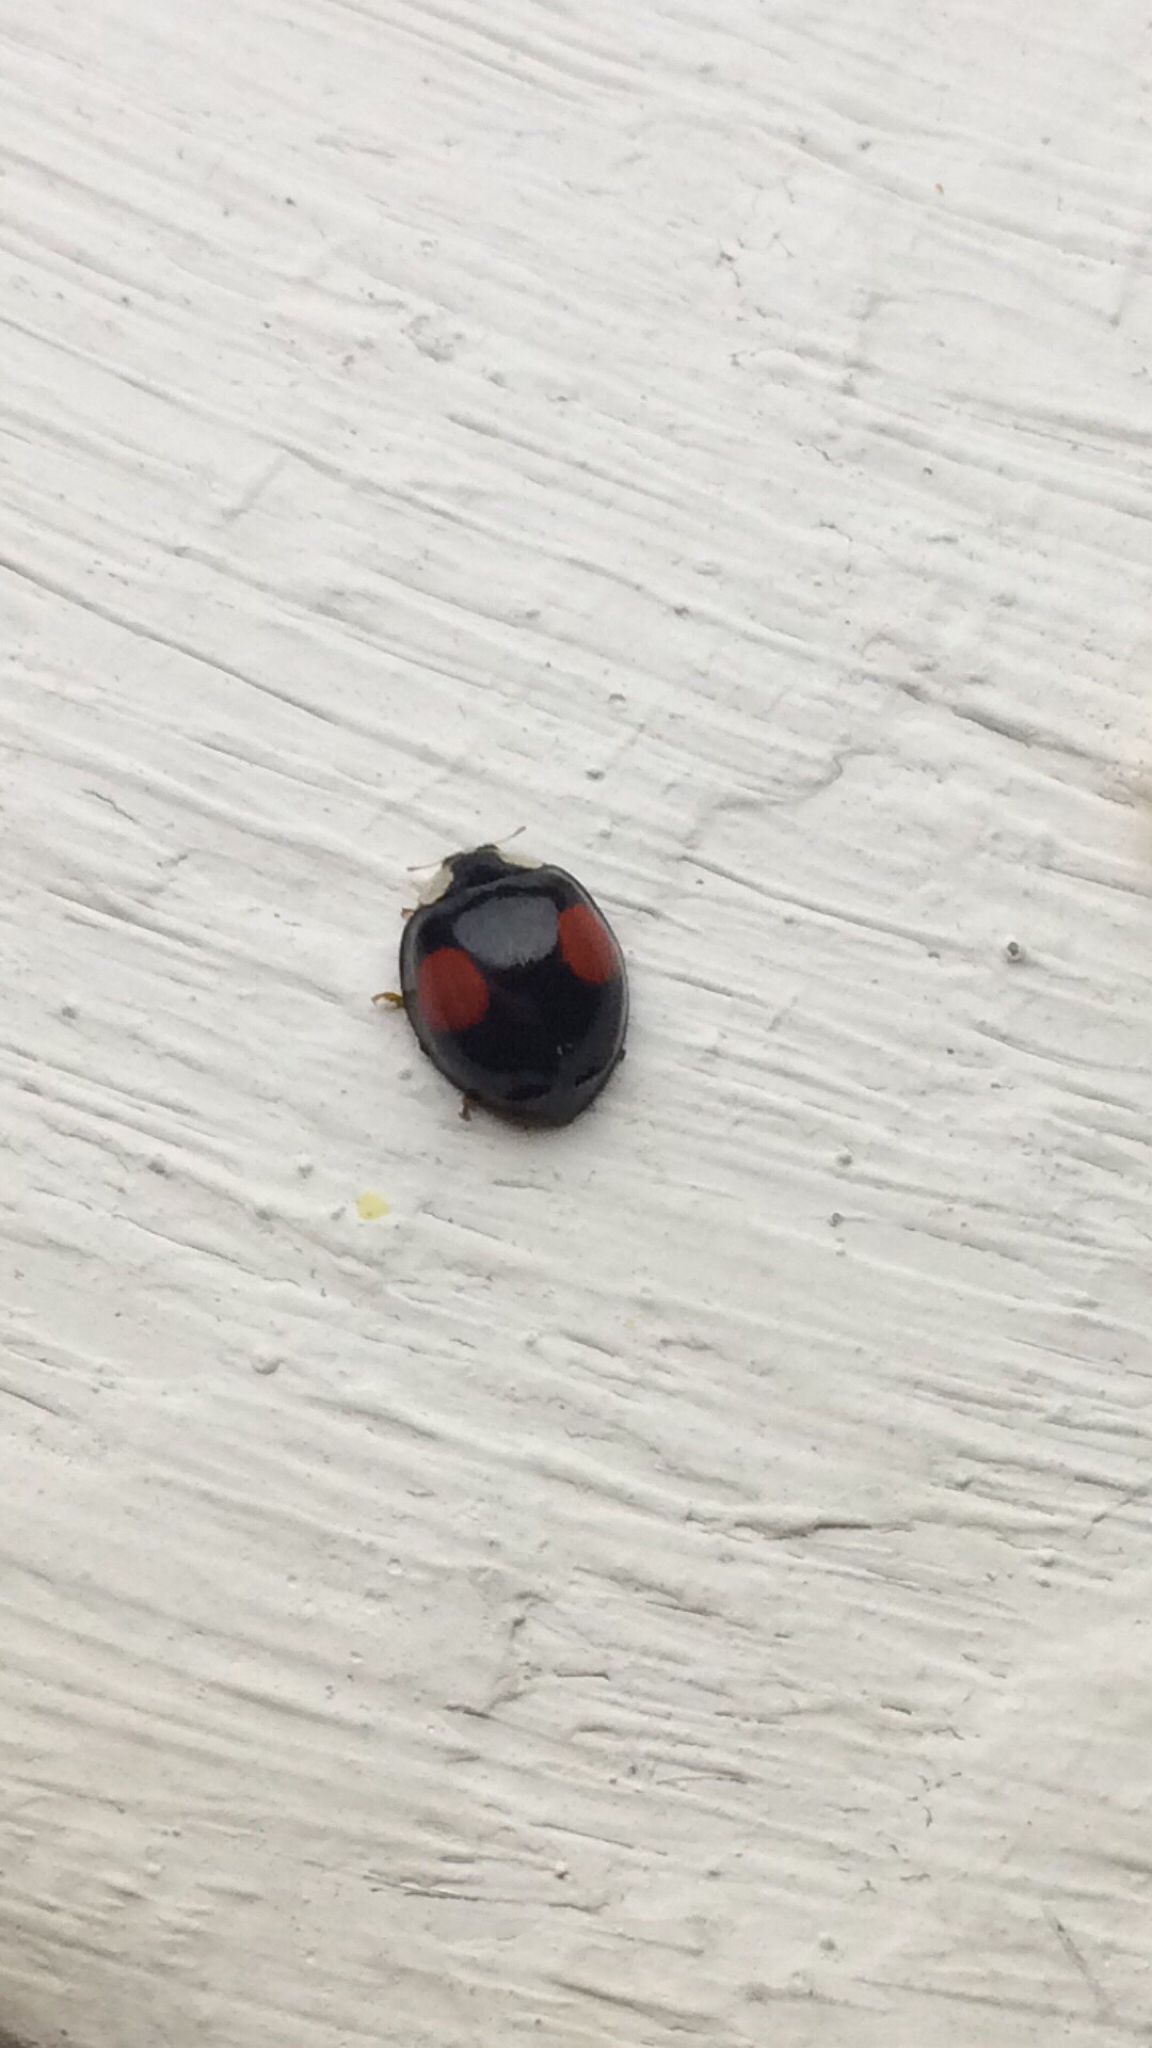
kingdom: Animalia
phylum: Arthropoda
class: Insecta
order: Coleoptera
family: Coccinellidae
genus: Harmonia
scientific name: Harmonia axyridis
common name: Harlequin ladybird
